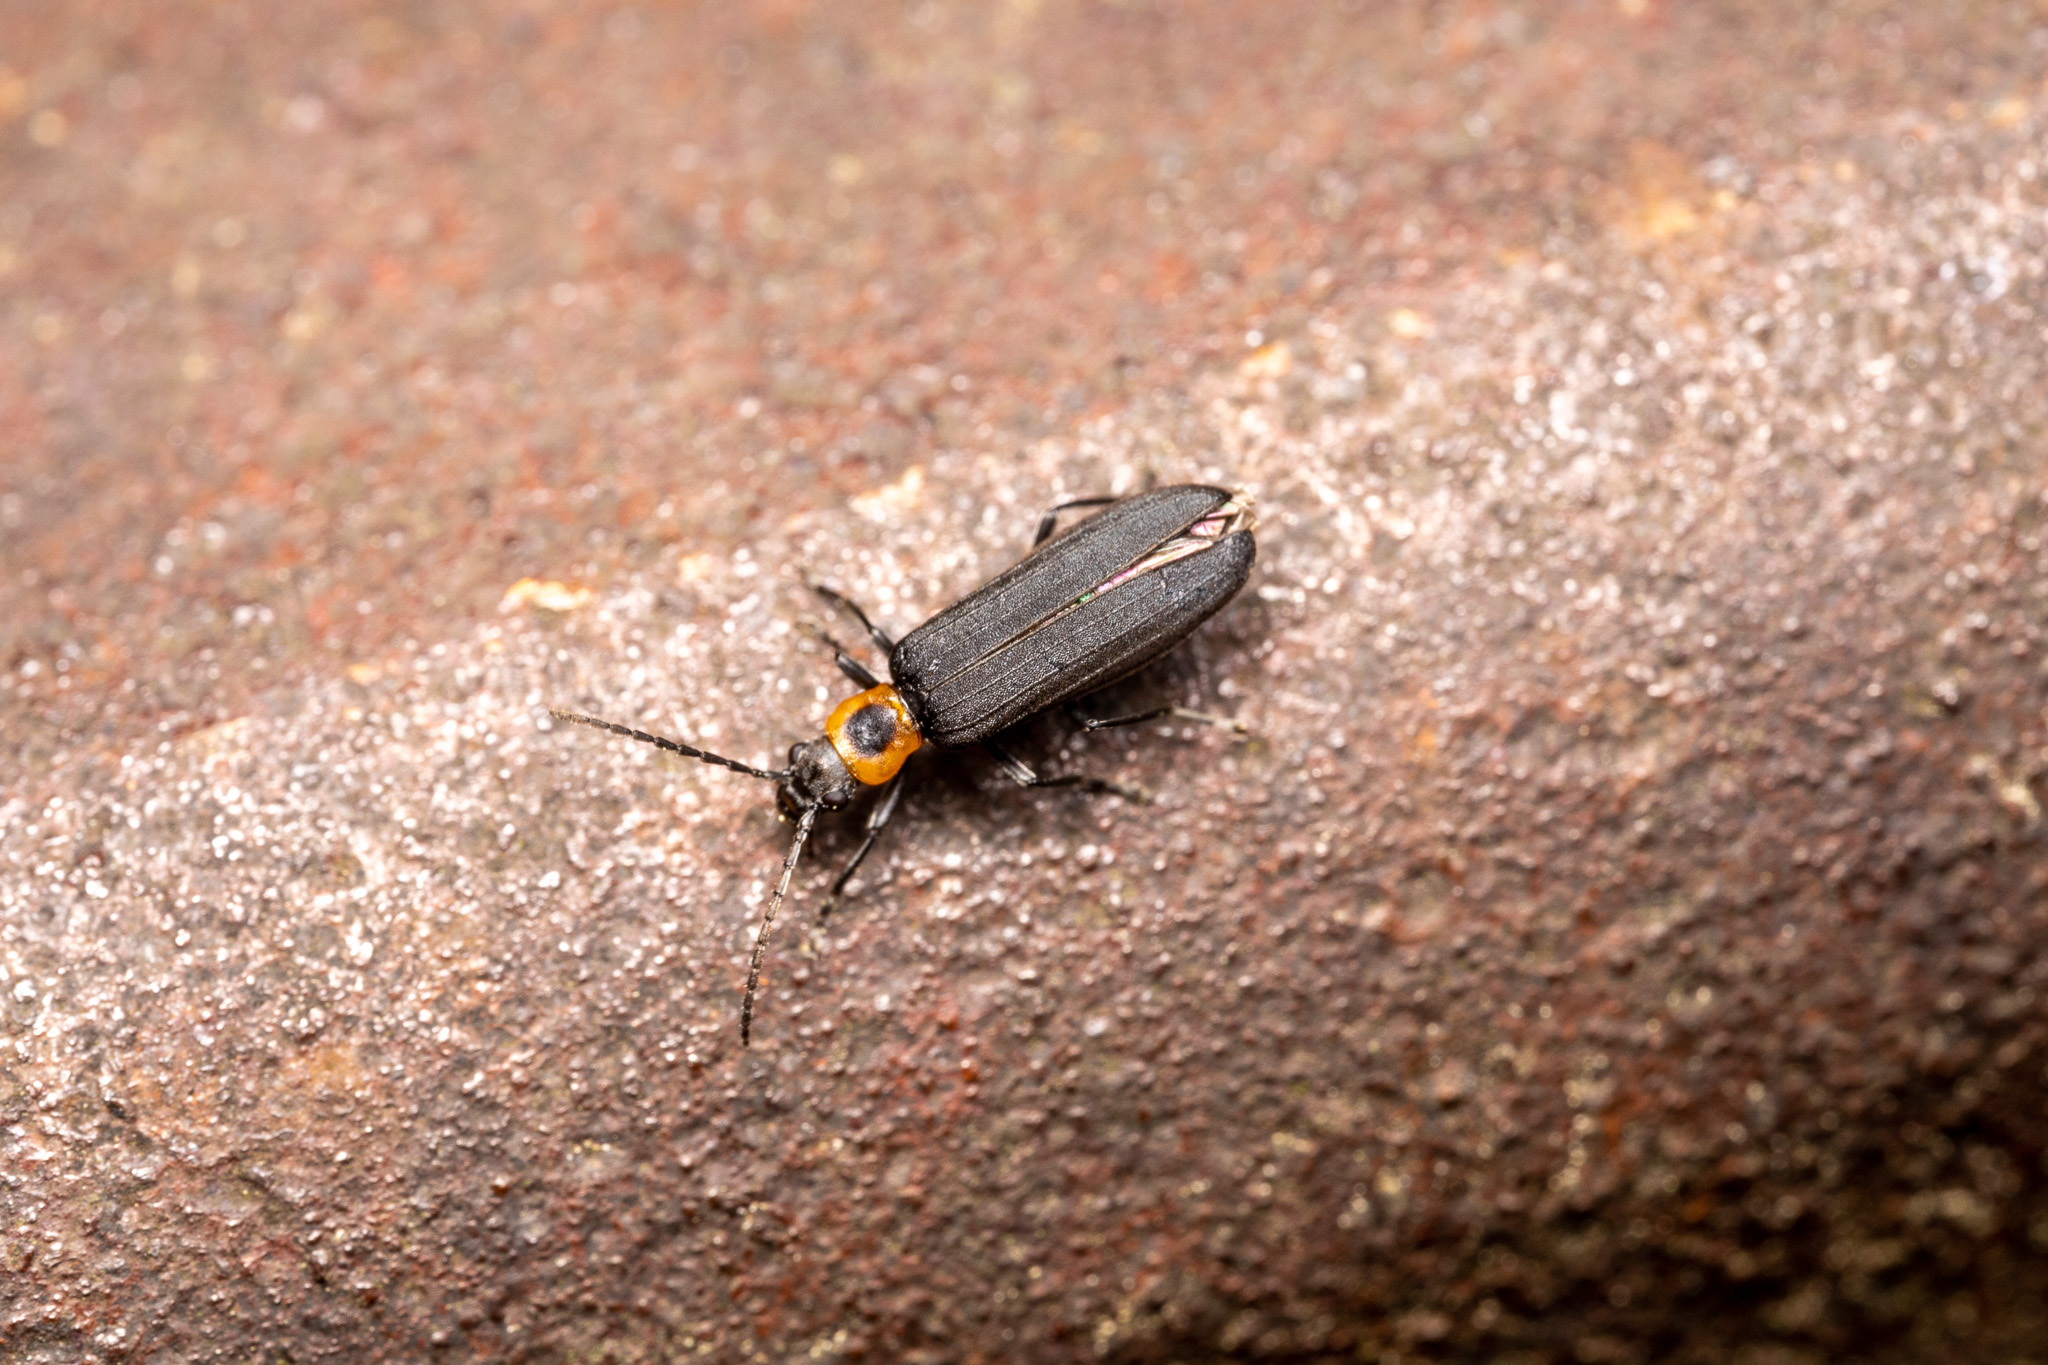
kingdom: Animalia
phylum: Arthropoda
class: Insecta
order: Coleoptera
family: Oedemeridae
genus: Ischnomera
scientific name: Ischnomera
